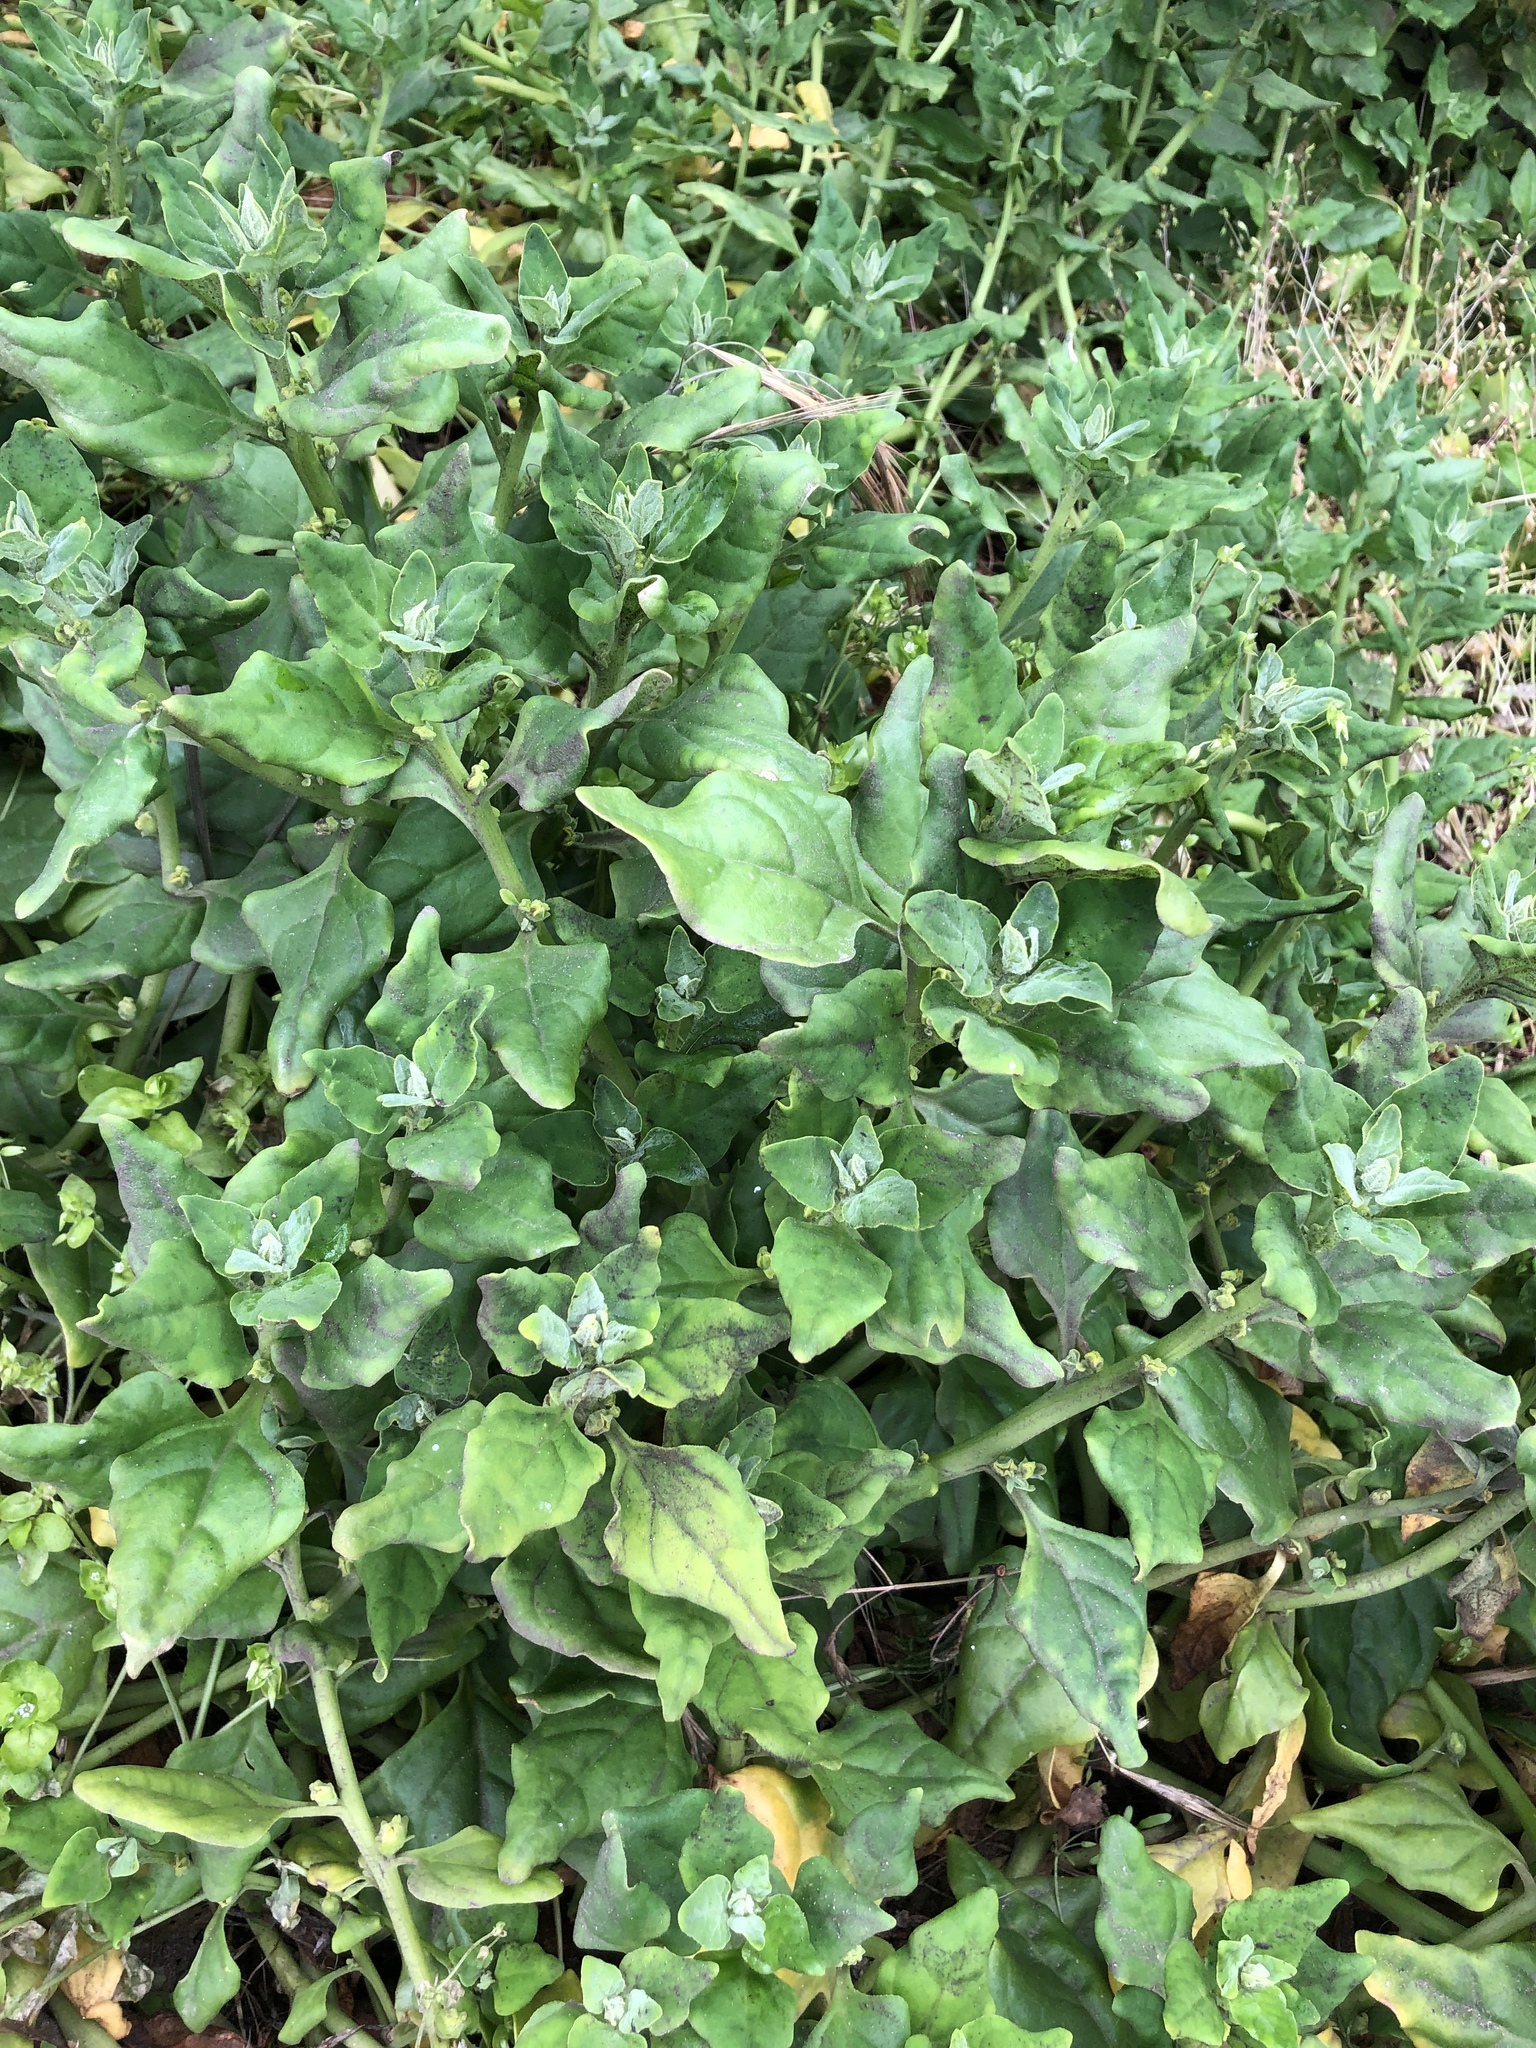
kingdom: Plantae
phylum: Tracheophyta
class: Magnoliopsida
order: Caryophyllales
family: Aizoaceae
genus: Tetragonia
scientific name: Tetragonia tetragonoides
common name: New zealand-spinach
